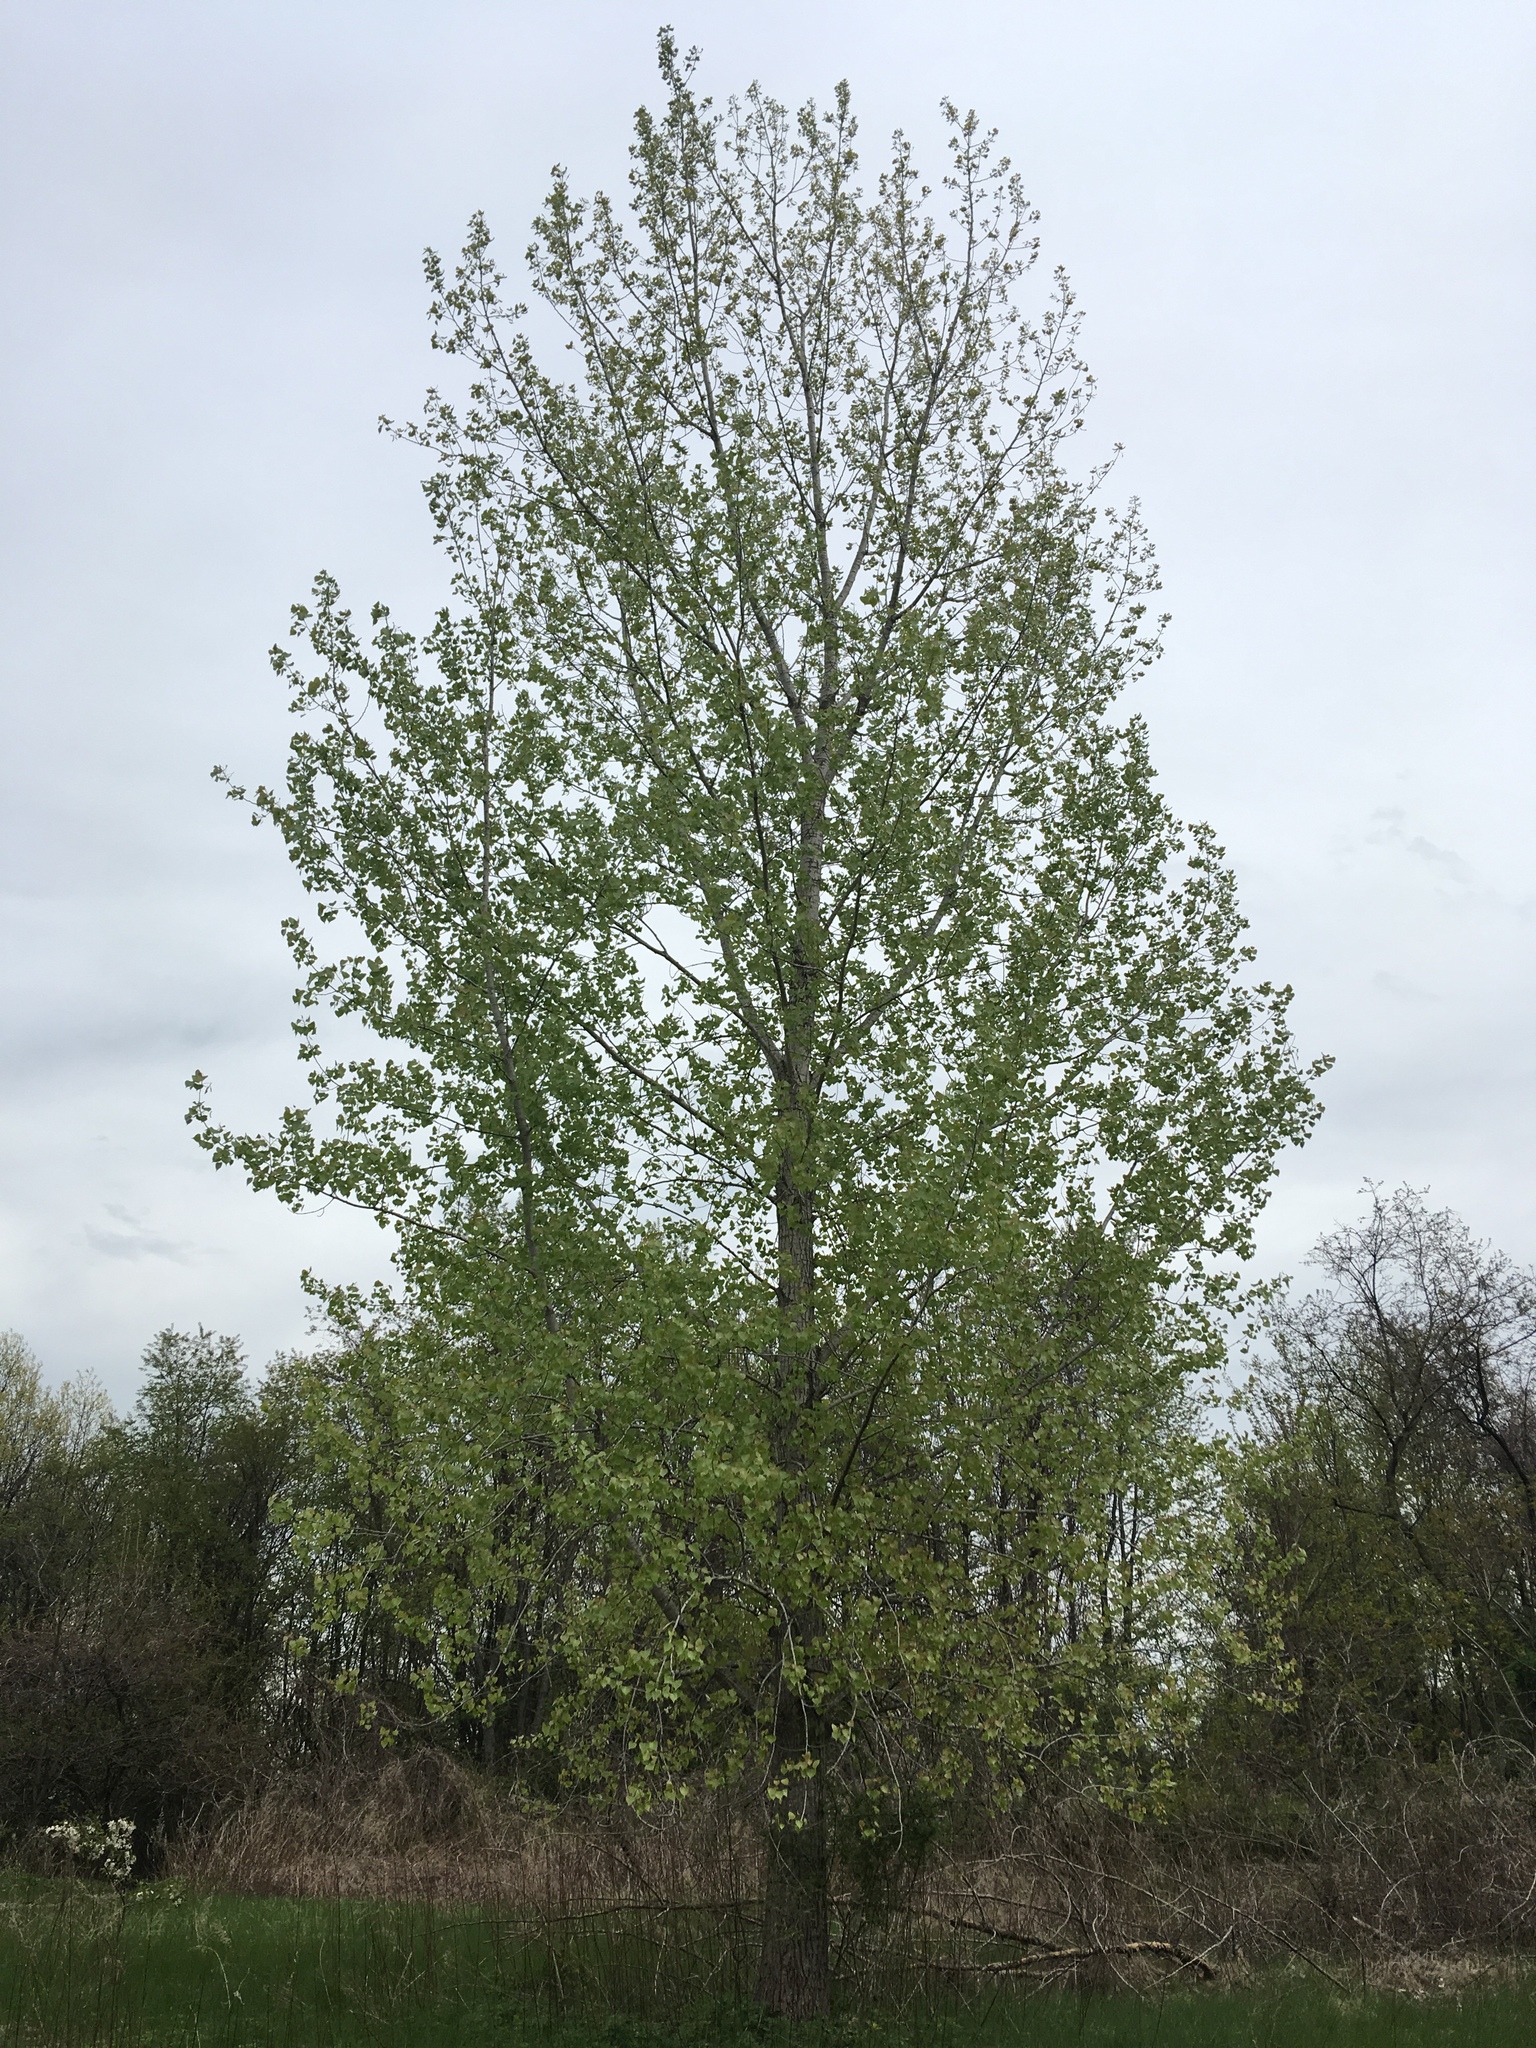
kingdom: Plantae
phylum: Tracheophyta
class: Magnoliopsida
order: Malpighiales
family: Salicaceae
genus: Populus
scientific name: Populus deltoides
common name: Eastern cottonwood
